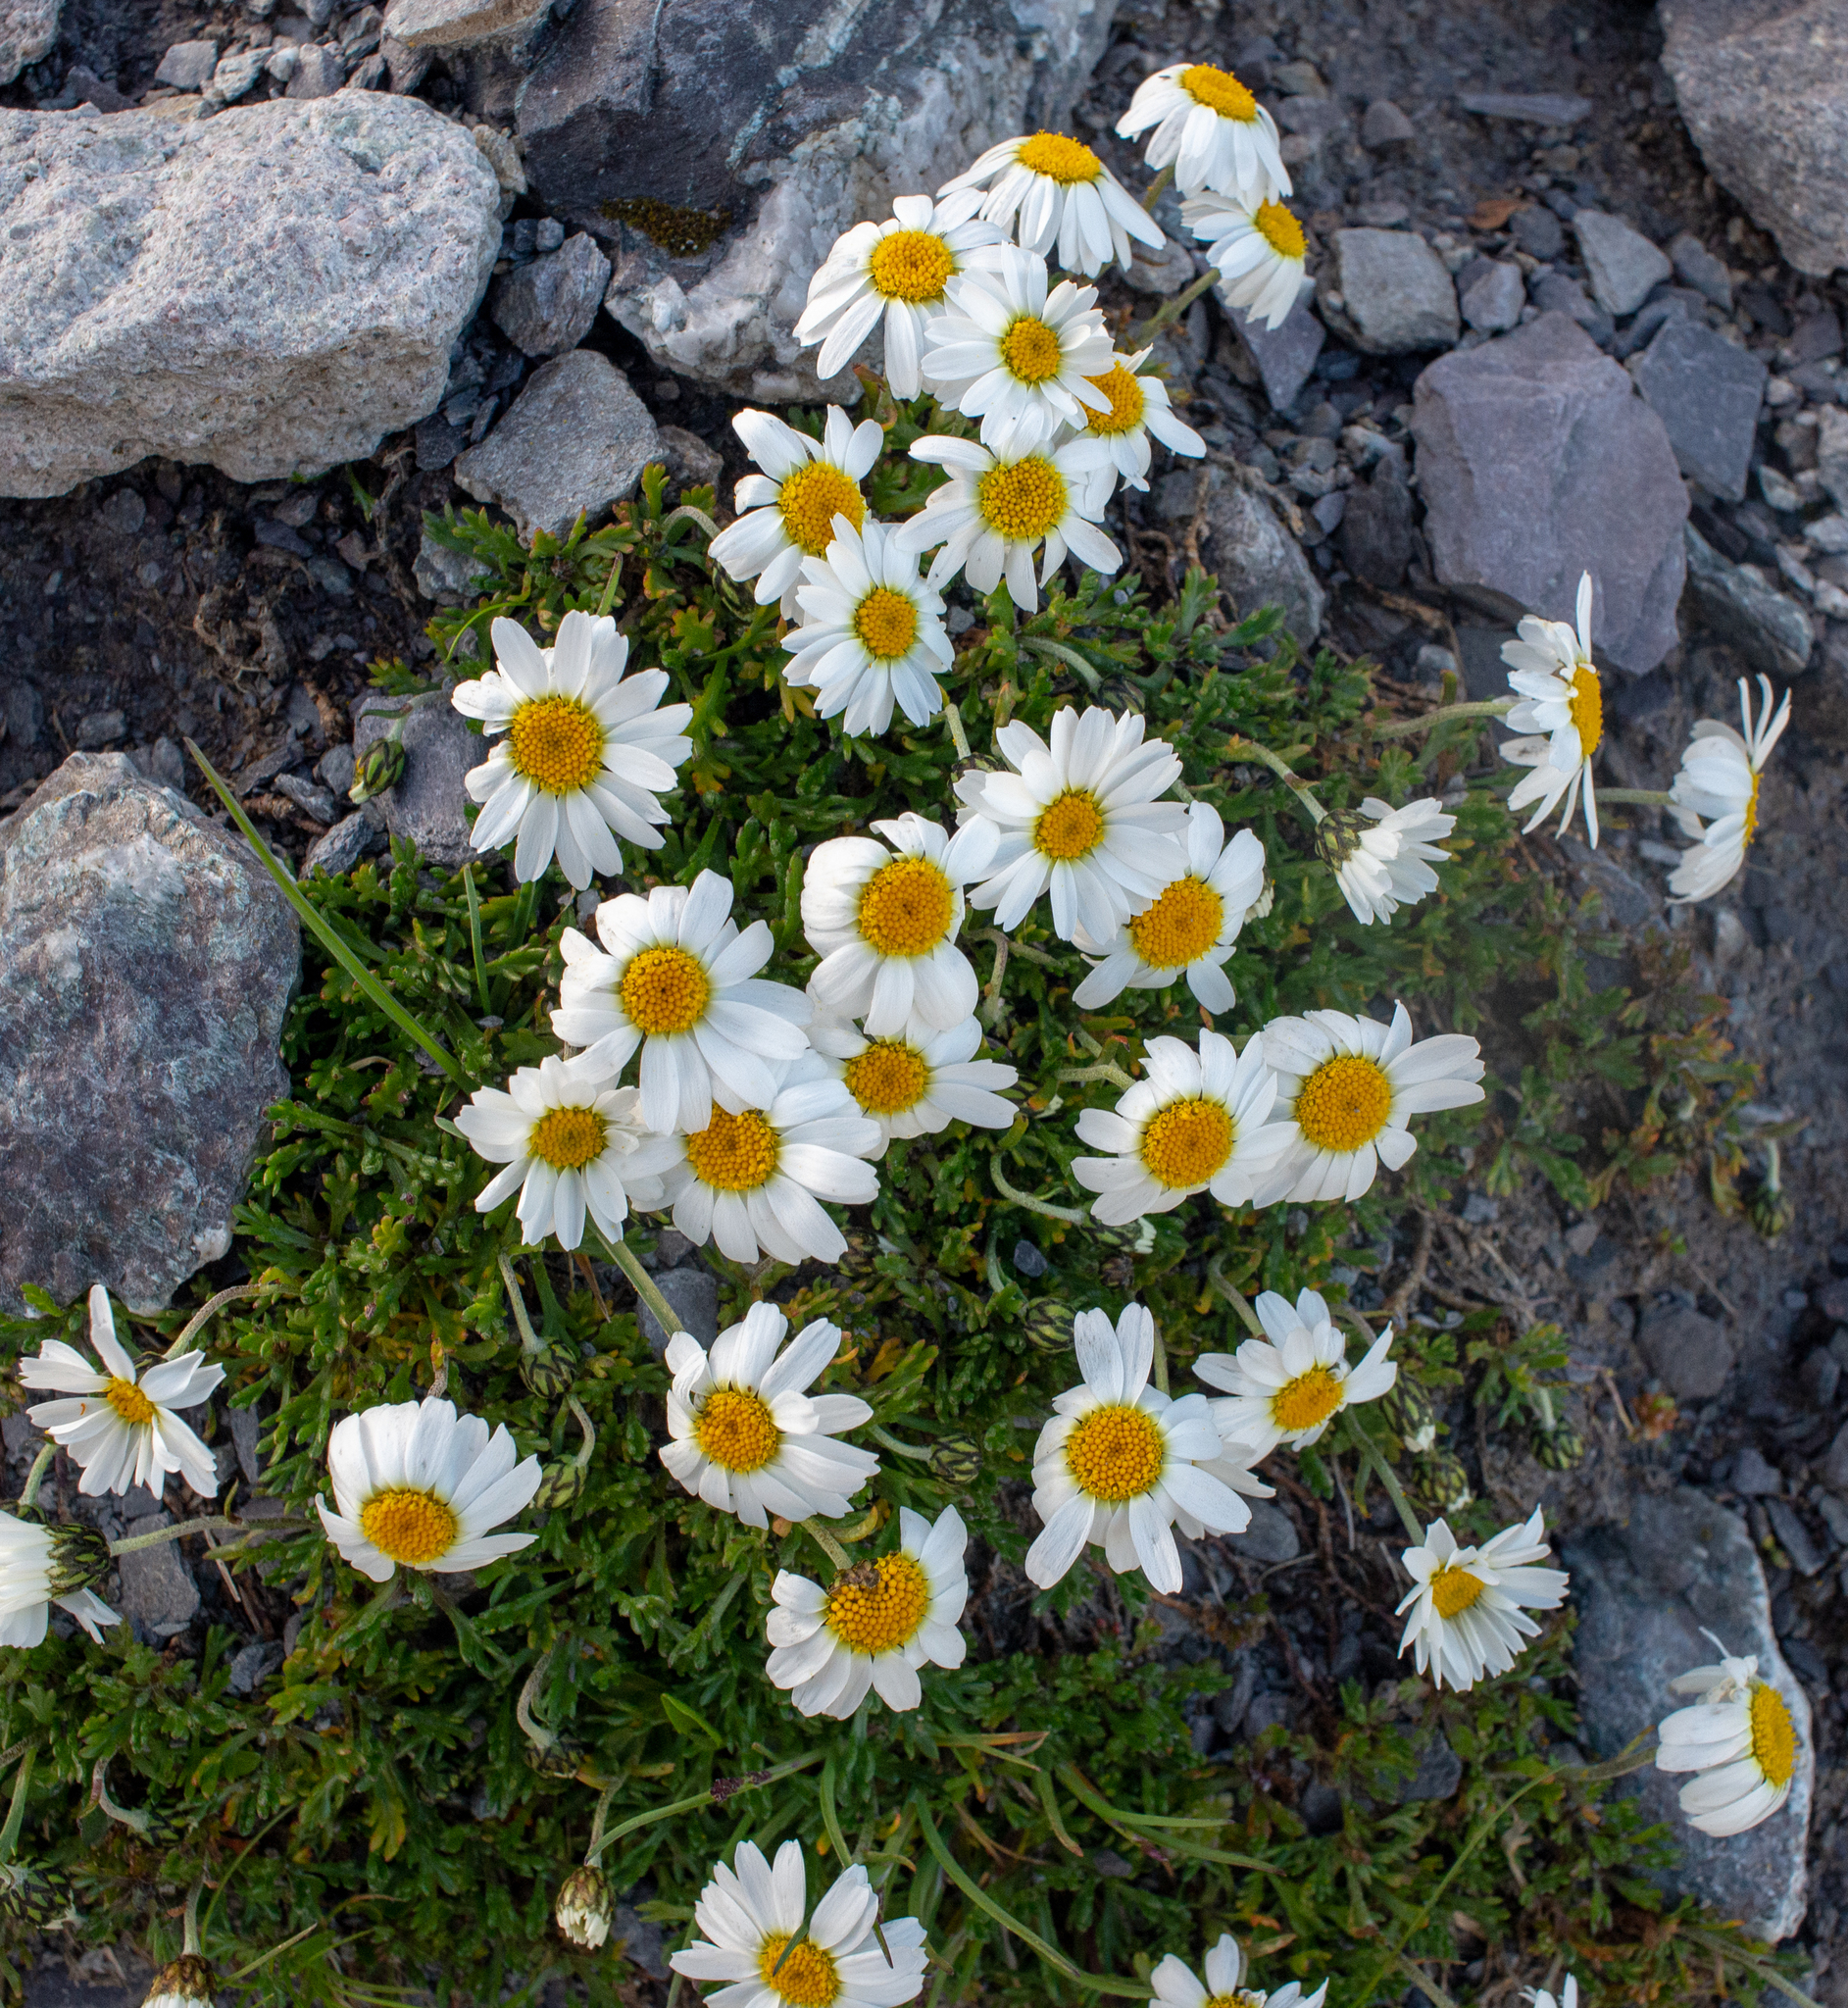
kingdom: Plantae
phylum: Tracheophyta
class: Magnoliopsida
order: Asterales
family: Asteraceae
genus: Leucanthemopsis
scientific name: Leucanthemopsis alpina
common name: Alpine moon daisy
